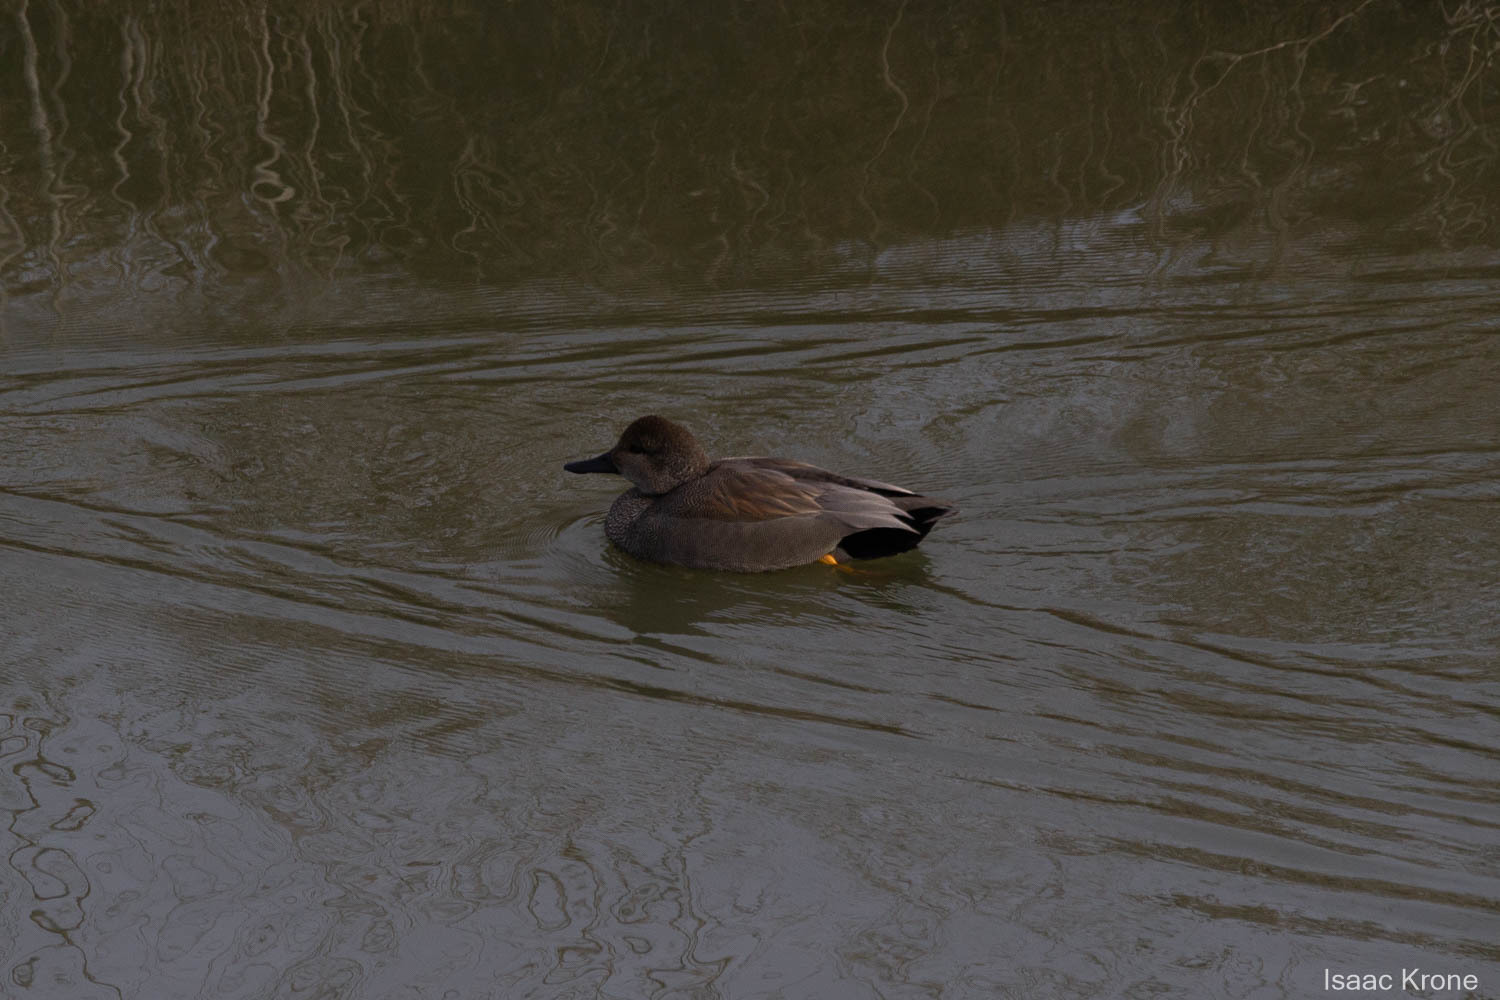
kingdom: Animalia
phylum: Chordata
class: Aves
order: Anseriformes
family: Anatidae
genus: Mareca
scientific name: Mareca strepera
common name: Gadwall
